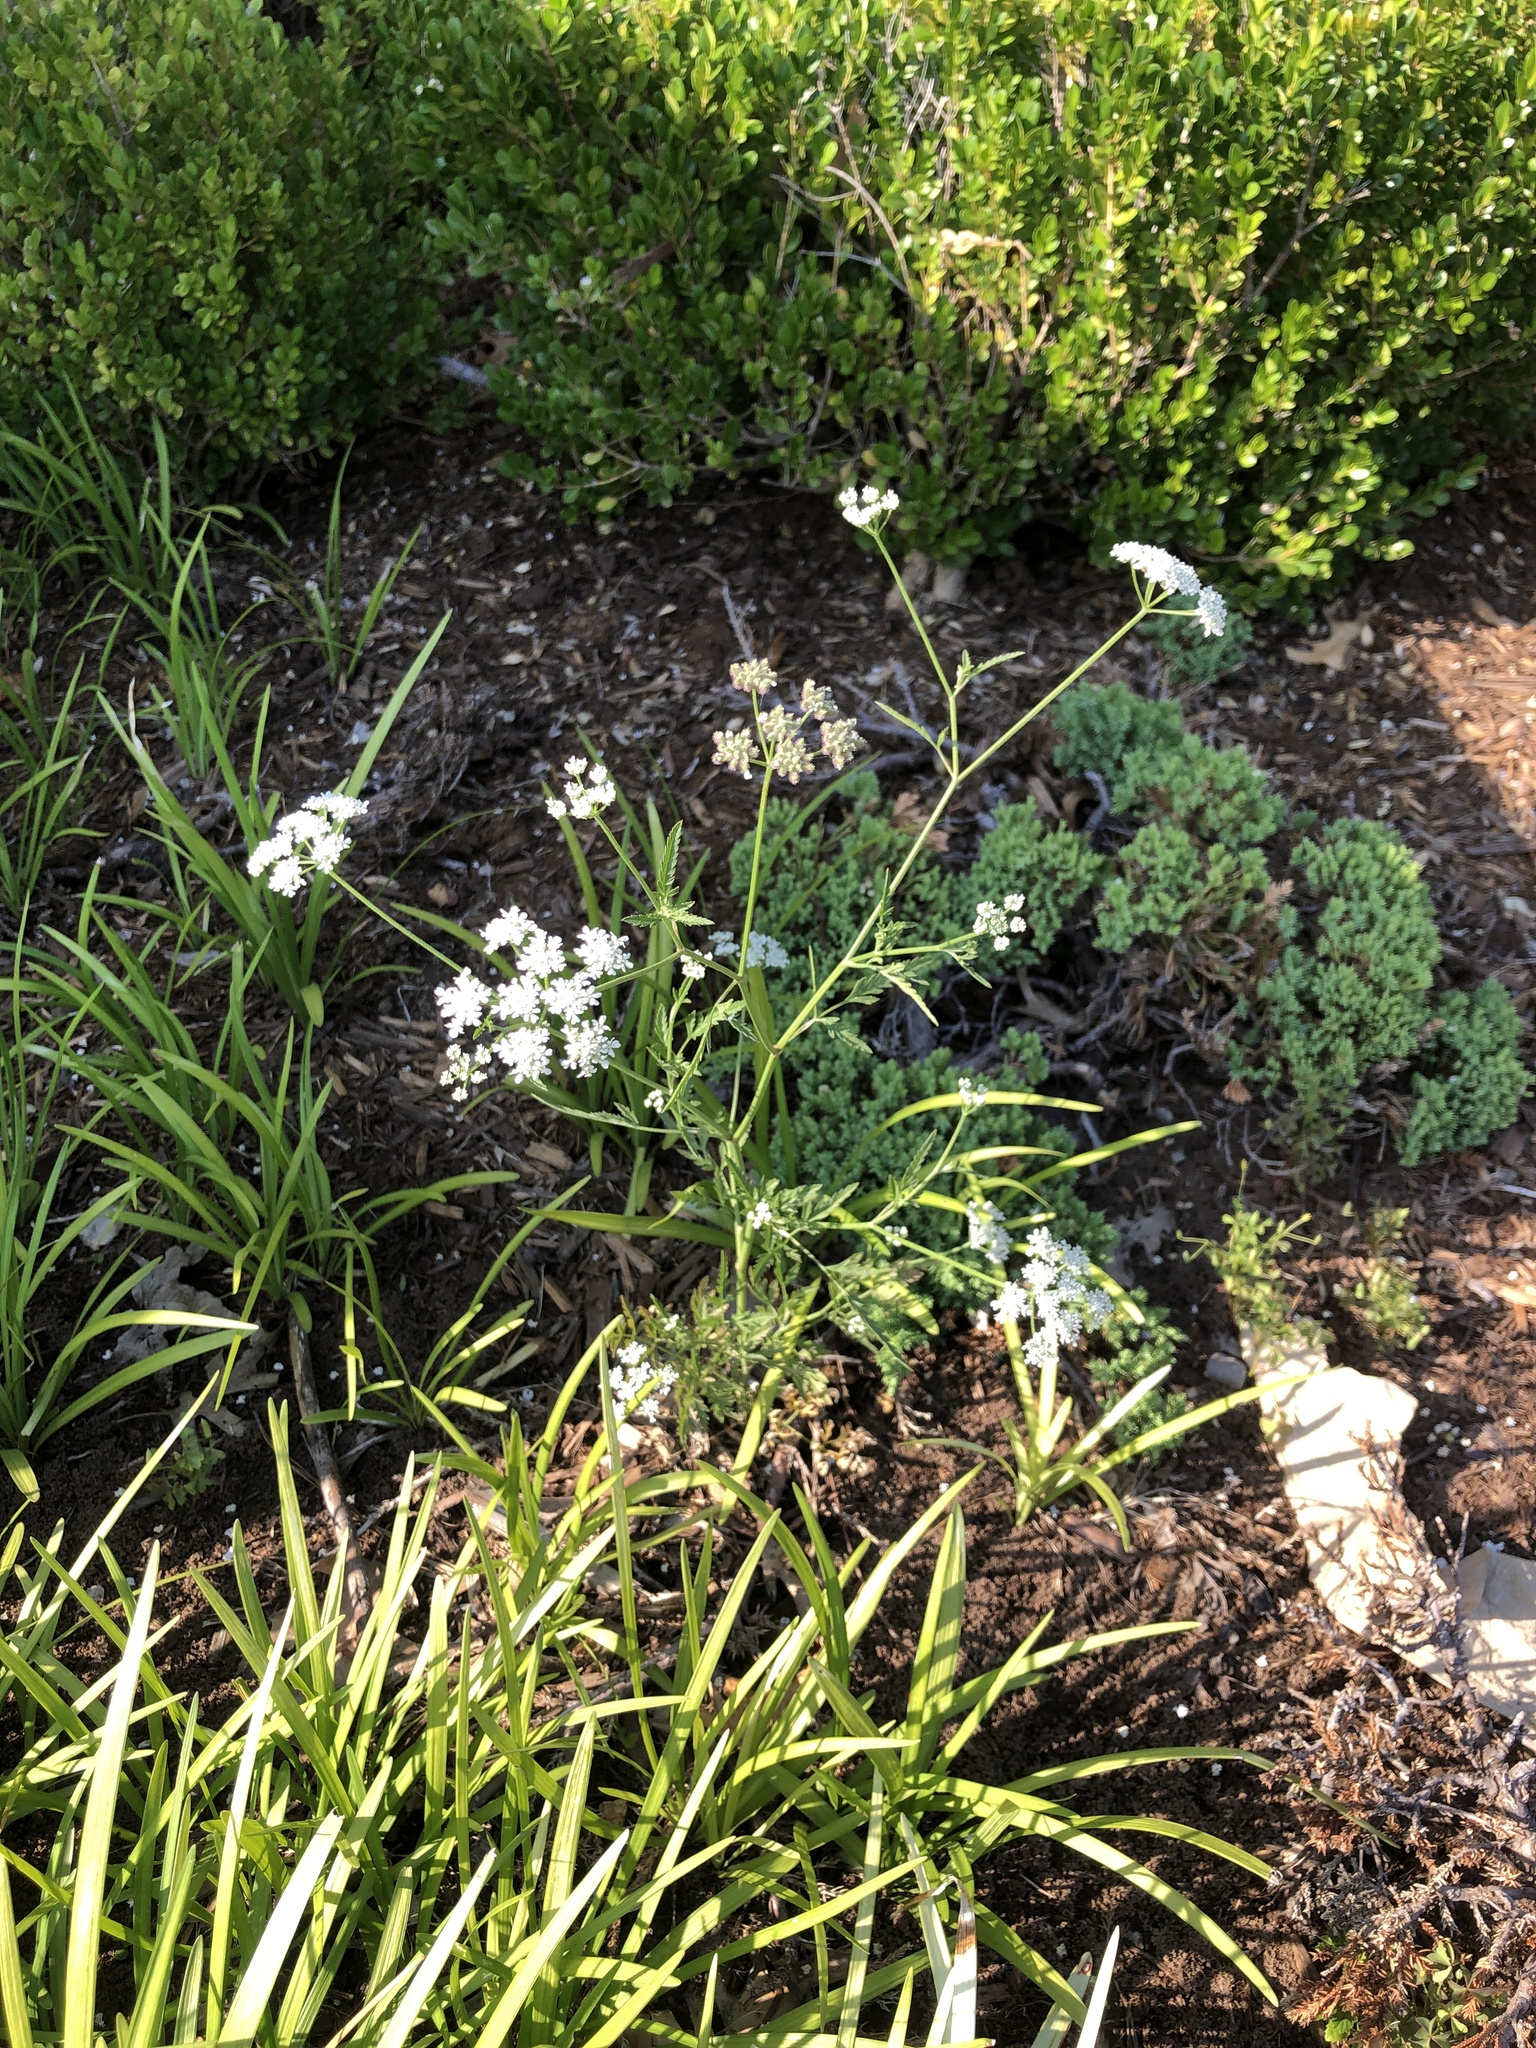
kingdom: Plantae
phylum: Tracheophyta
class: Magnoliopsida
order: Apiales
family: Apiaceae
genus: Torilis
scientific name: Torilis arvensis
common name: Spreading hedge-parsley
